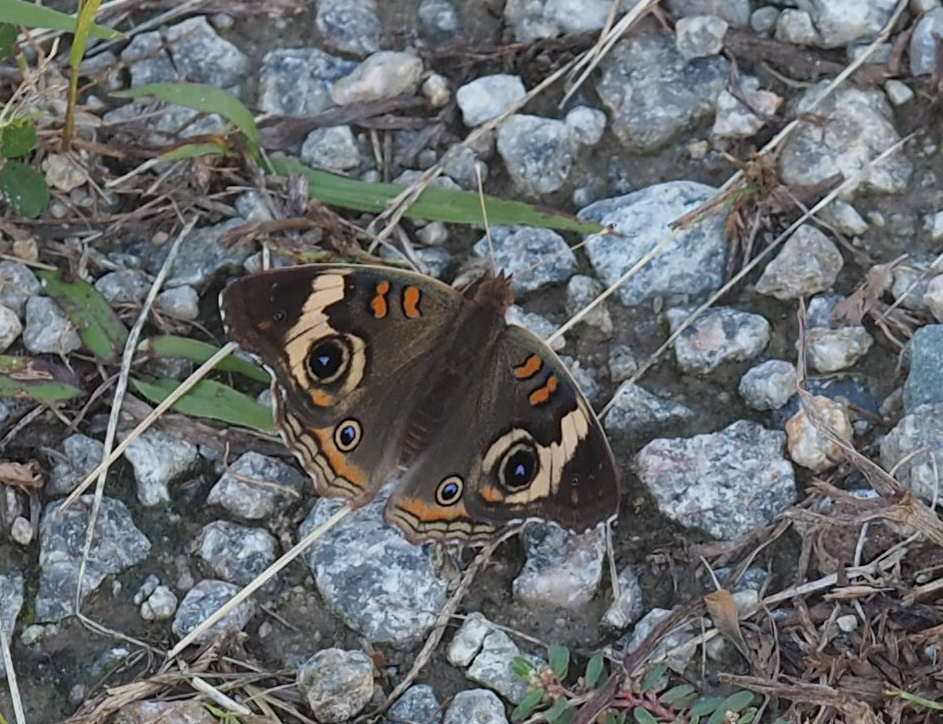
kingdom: Animalia
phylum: Arthropoda
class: Insecta
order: Lepidoptera
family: Nymphalidae
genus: Junonia
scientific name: Junonia coenia
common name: Common buckeye
